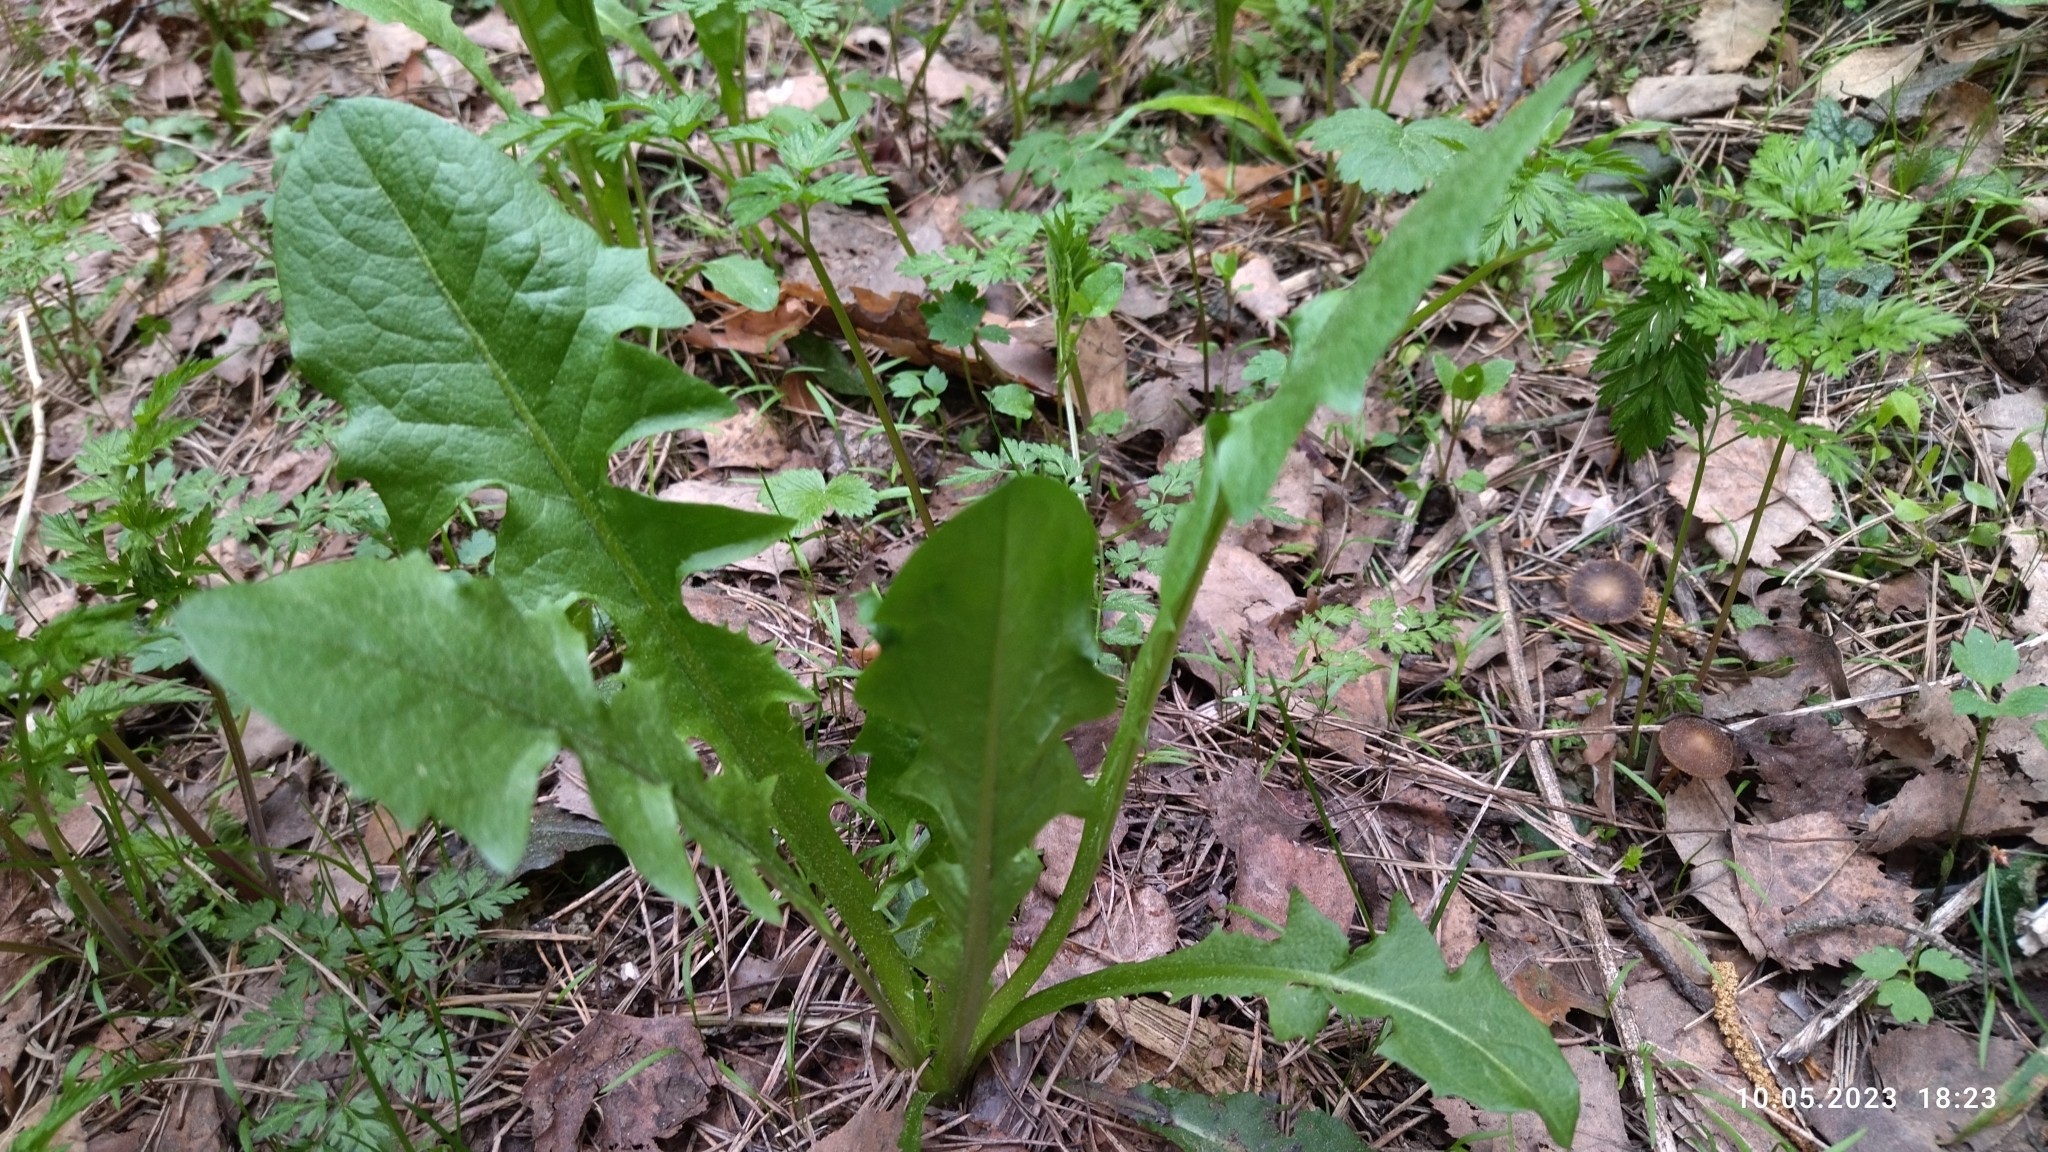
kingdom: Plantae
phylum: Tracheophyta
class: Magnoliopsida
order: Asterales
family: Asteraceae
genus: Taraxacum
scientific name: Taraxacum officinale
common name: Common dandelion
